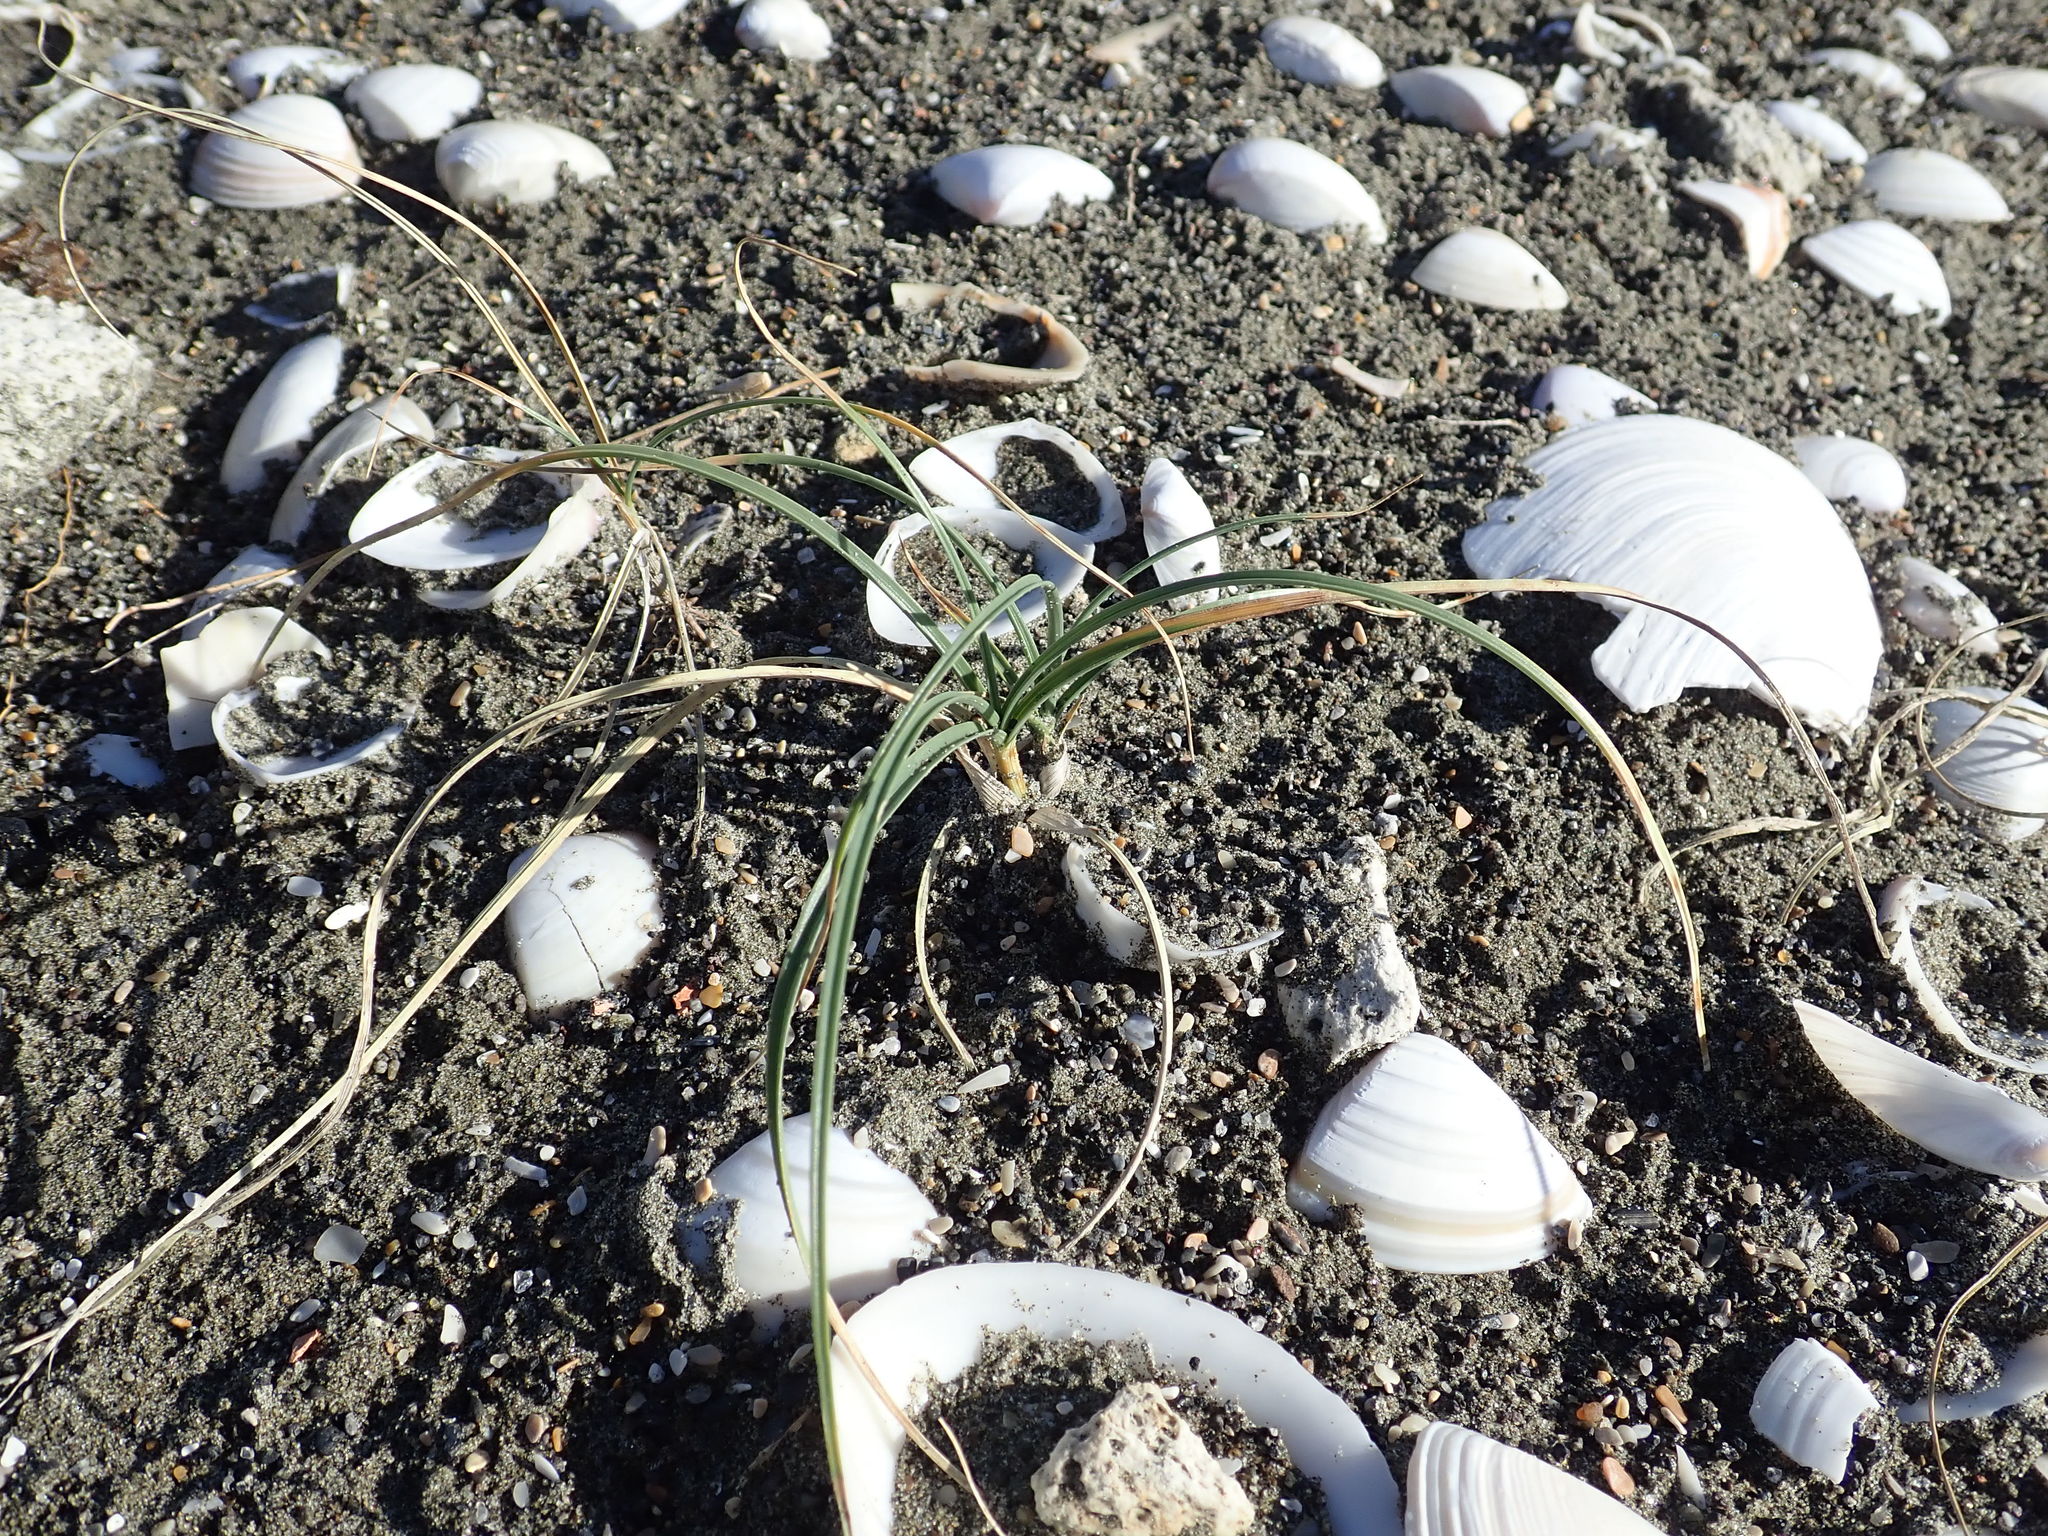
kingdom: Plantae
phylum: Tracheophyta
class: Liliopsida
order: Poales
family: Cyperaceae
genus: Carex
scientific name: Carex pumila
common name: Dwarf sedge
